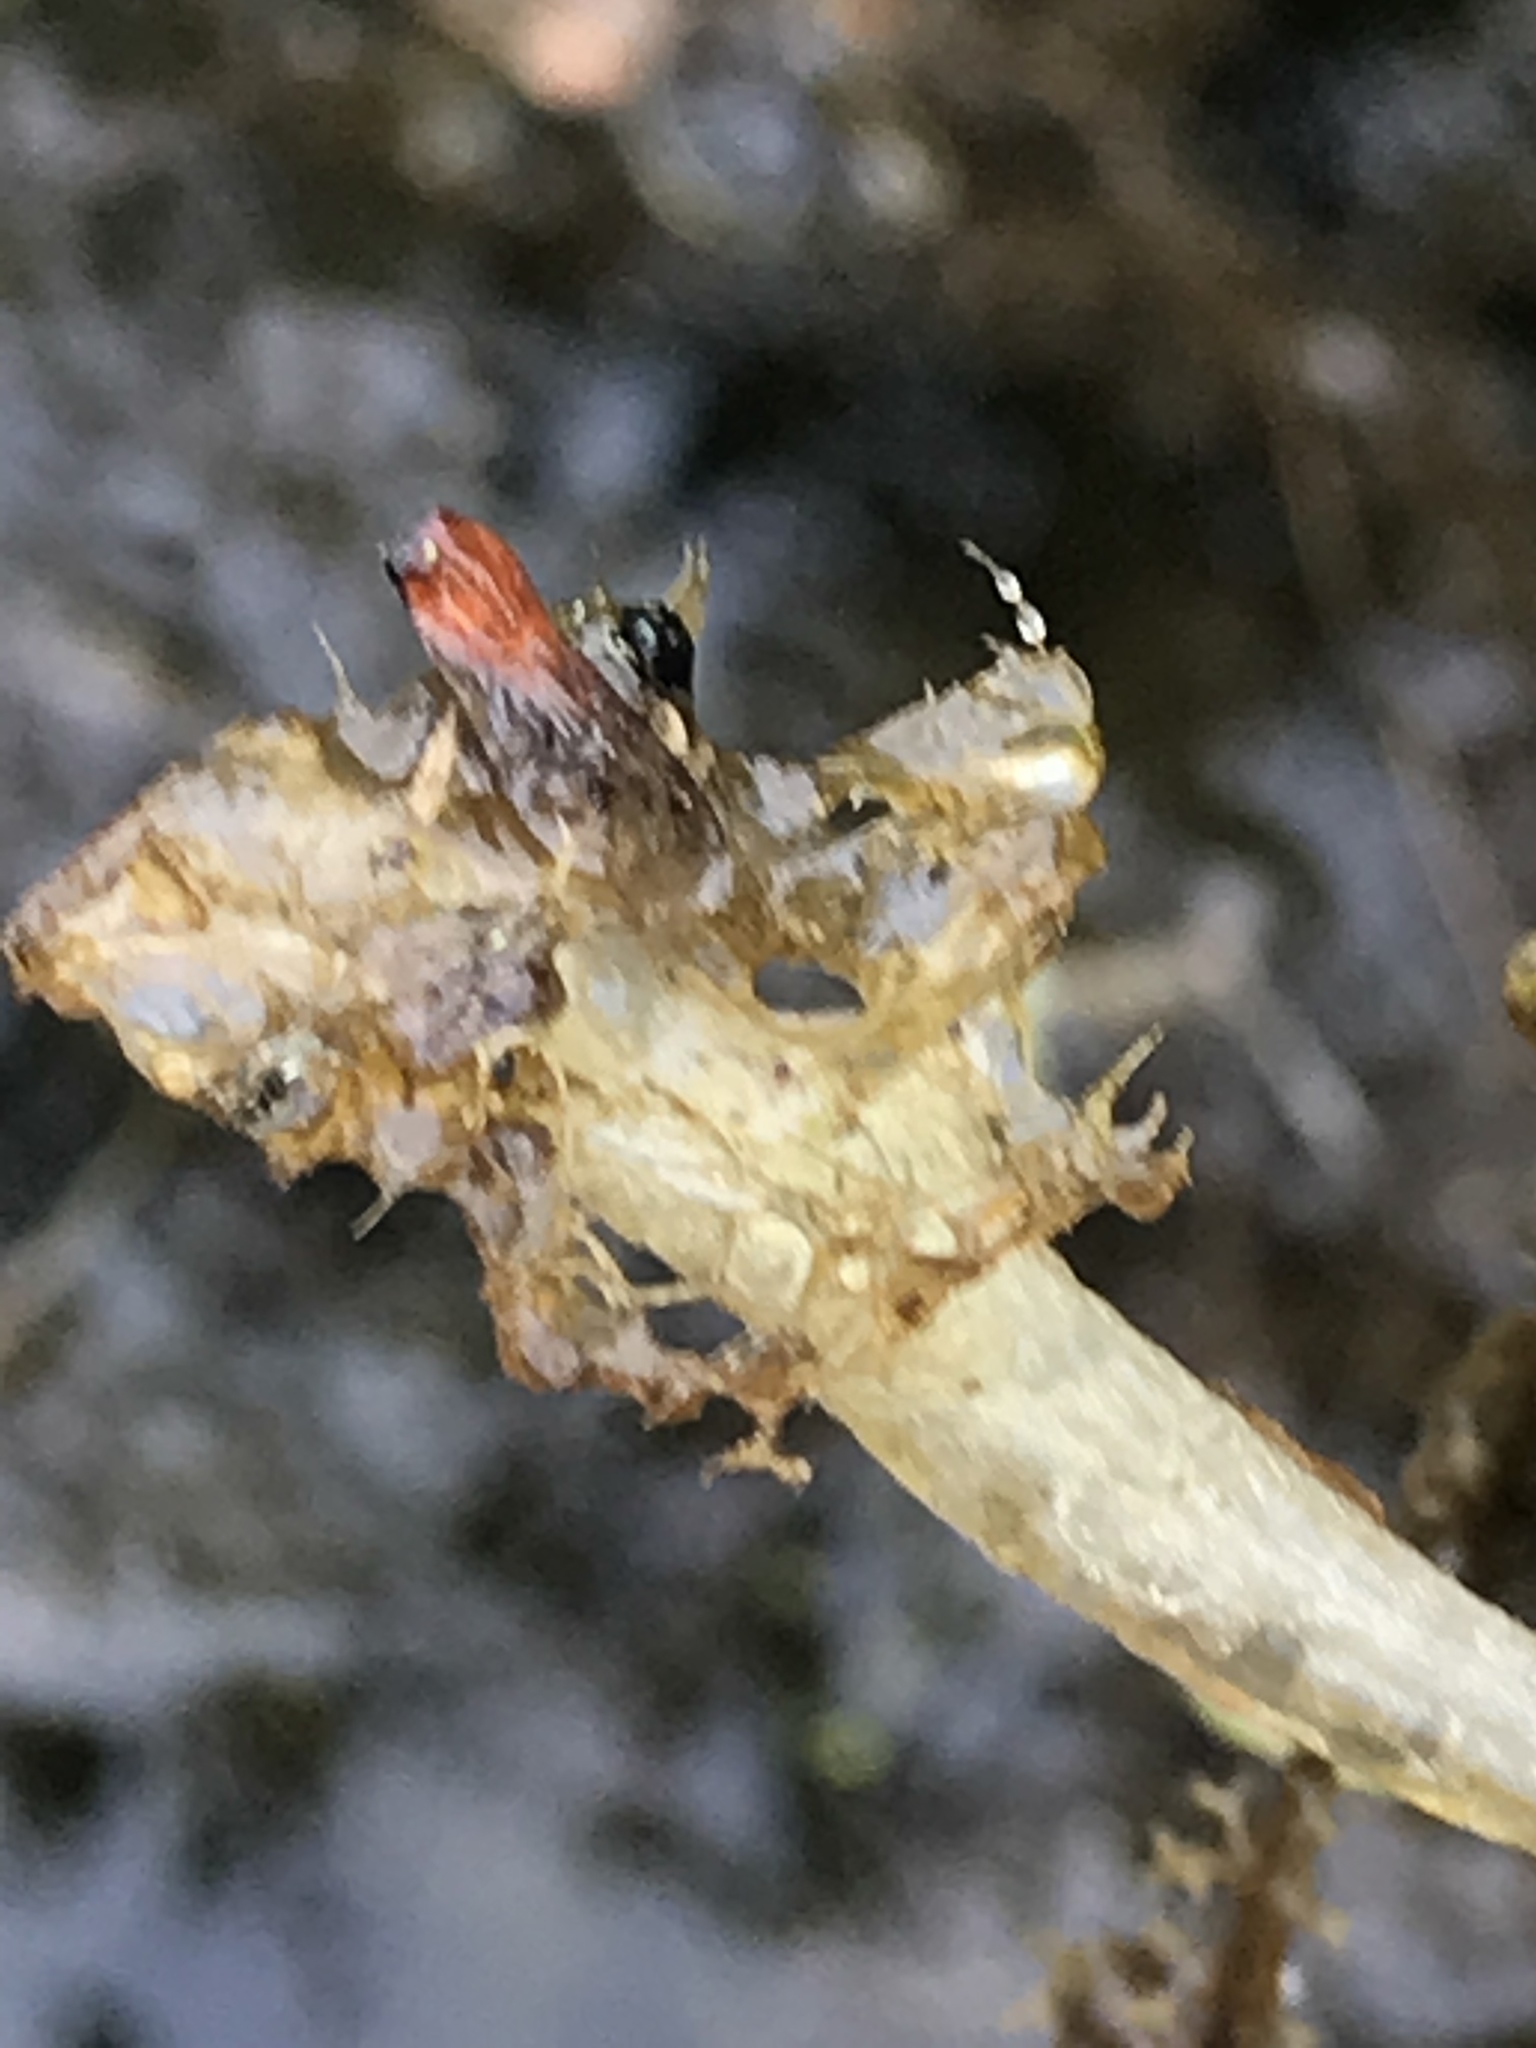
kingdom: Plantae
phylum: Tracheophyta
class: Magnoliopsida
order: Lamiales
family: Lentibulariaceae
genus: Utricularia
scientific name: Utricularia inflata
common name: Floating bladderwort
